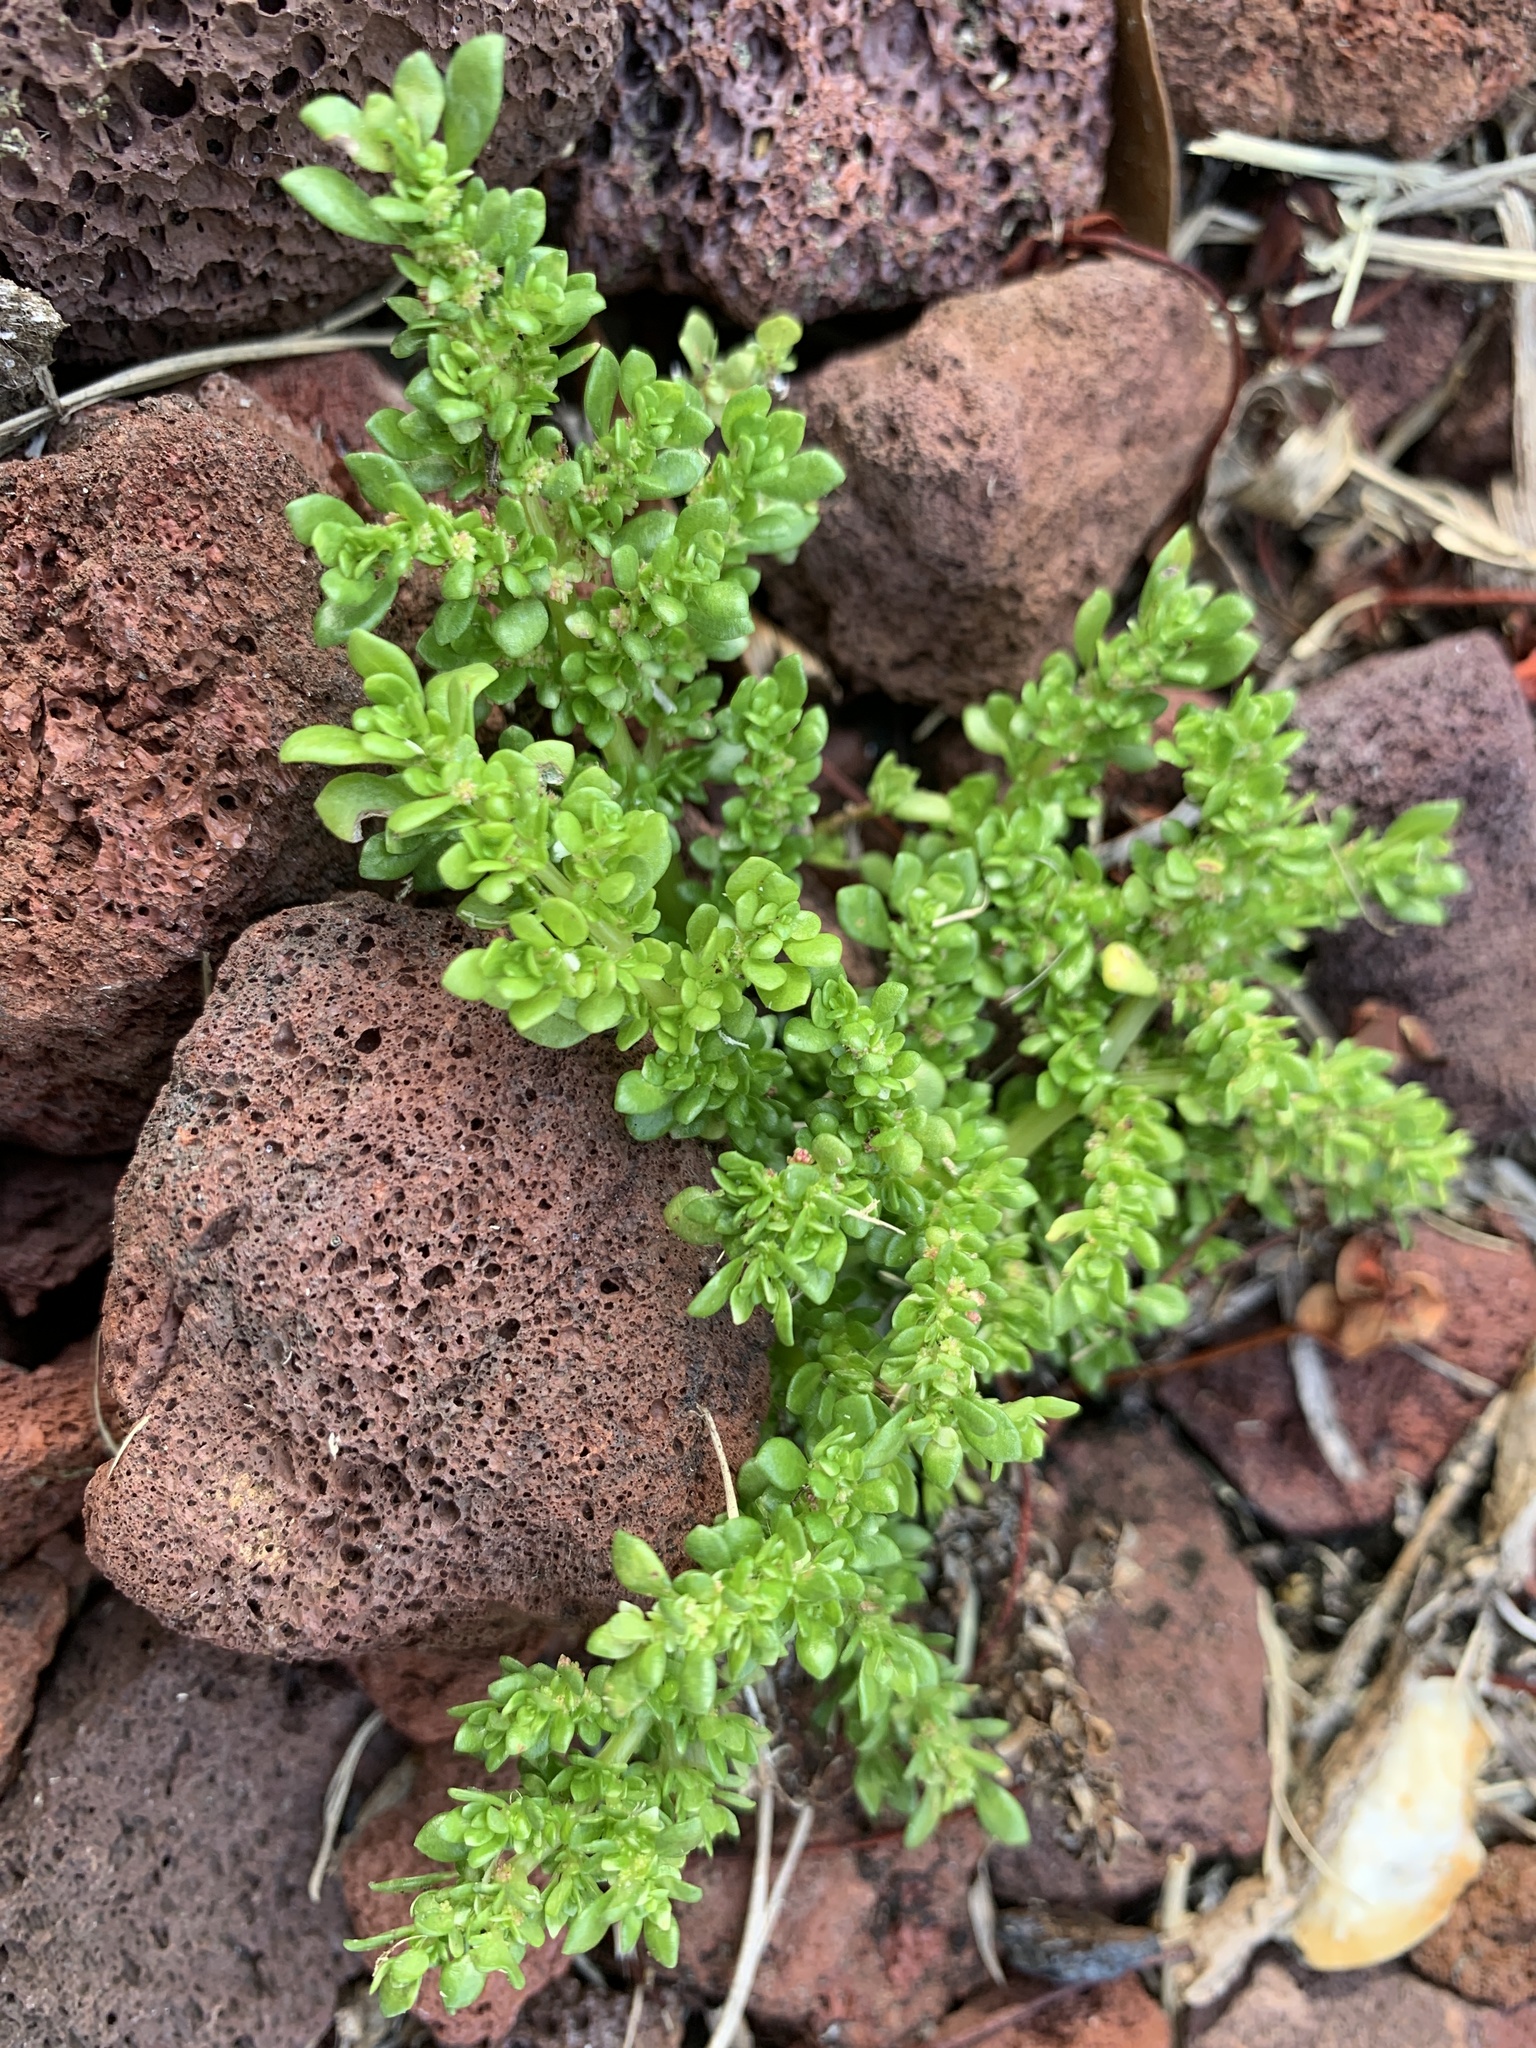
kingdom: Plantae
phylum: Tracheophyta
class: Magnoliopsida
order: Rosales
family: Urticaceae
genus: Pilea
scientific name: Pilea microphylla
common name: Artillery-plant
